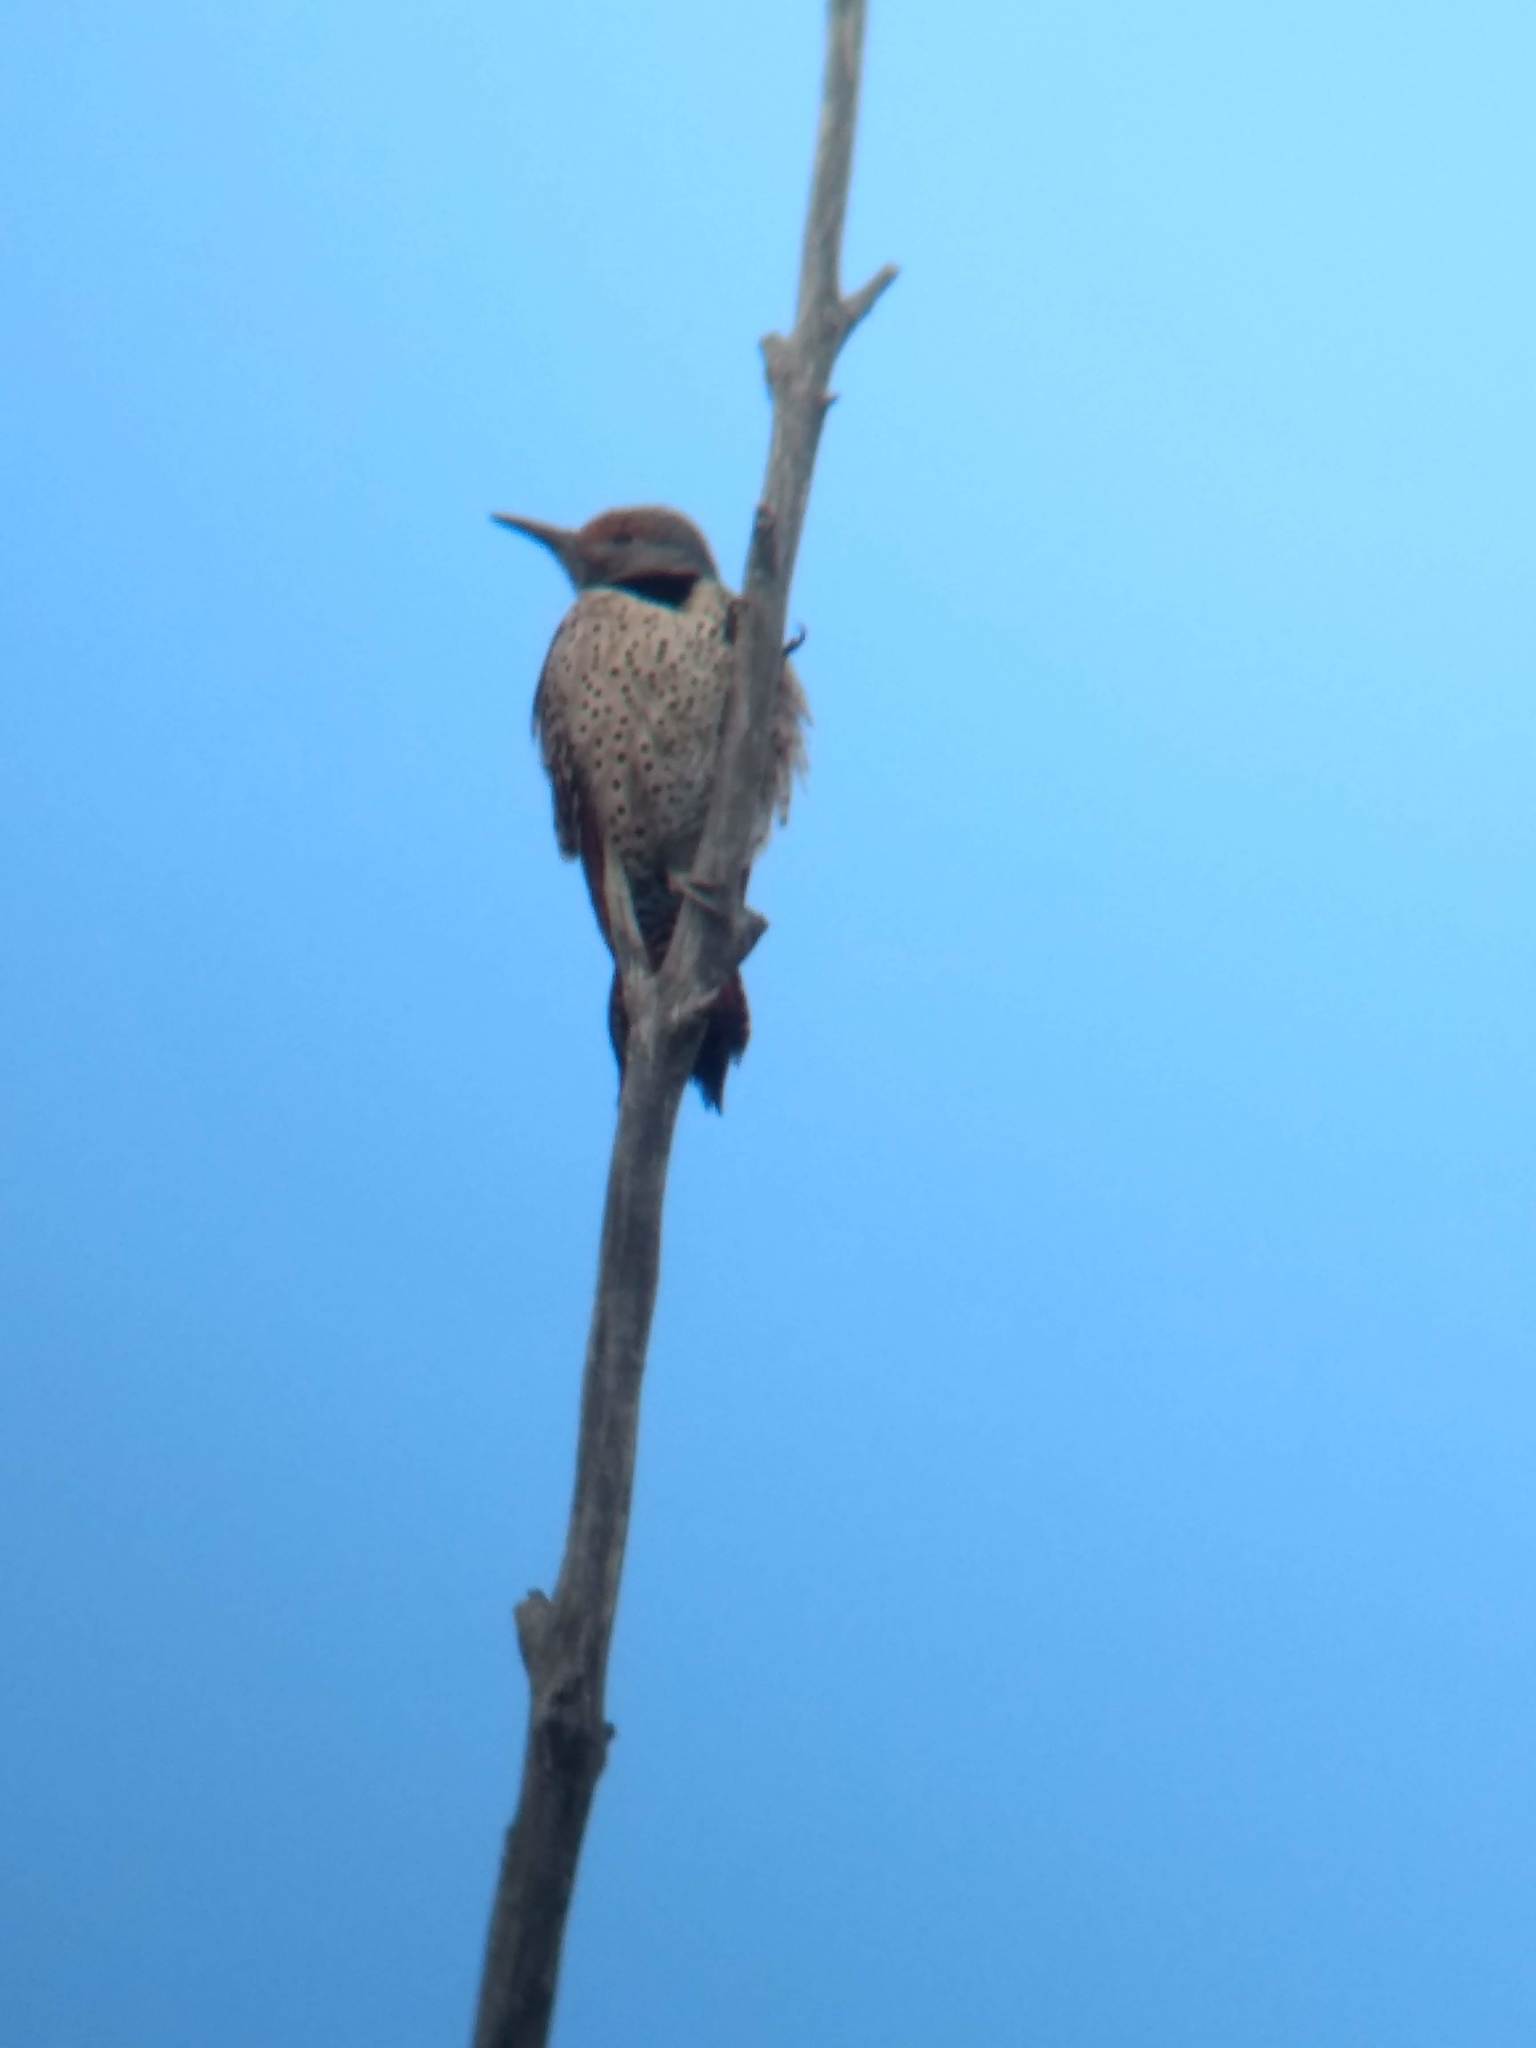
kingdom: Animalia
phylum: Chordata
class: Aves
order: Piciformes
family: Picidae
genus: Colaptes
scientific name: Colaptes auratus
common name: Northern flicker
